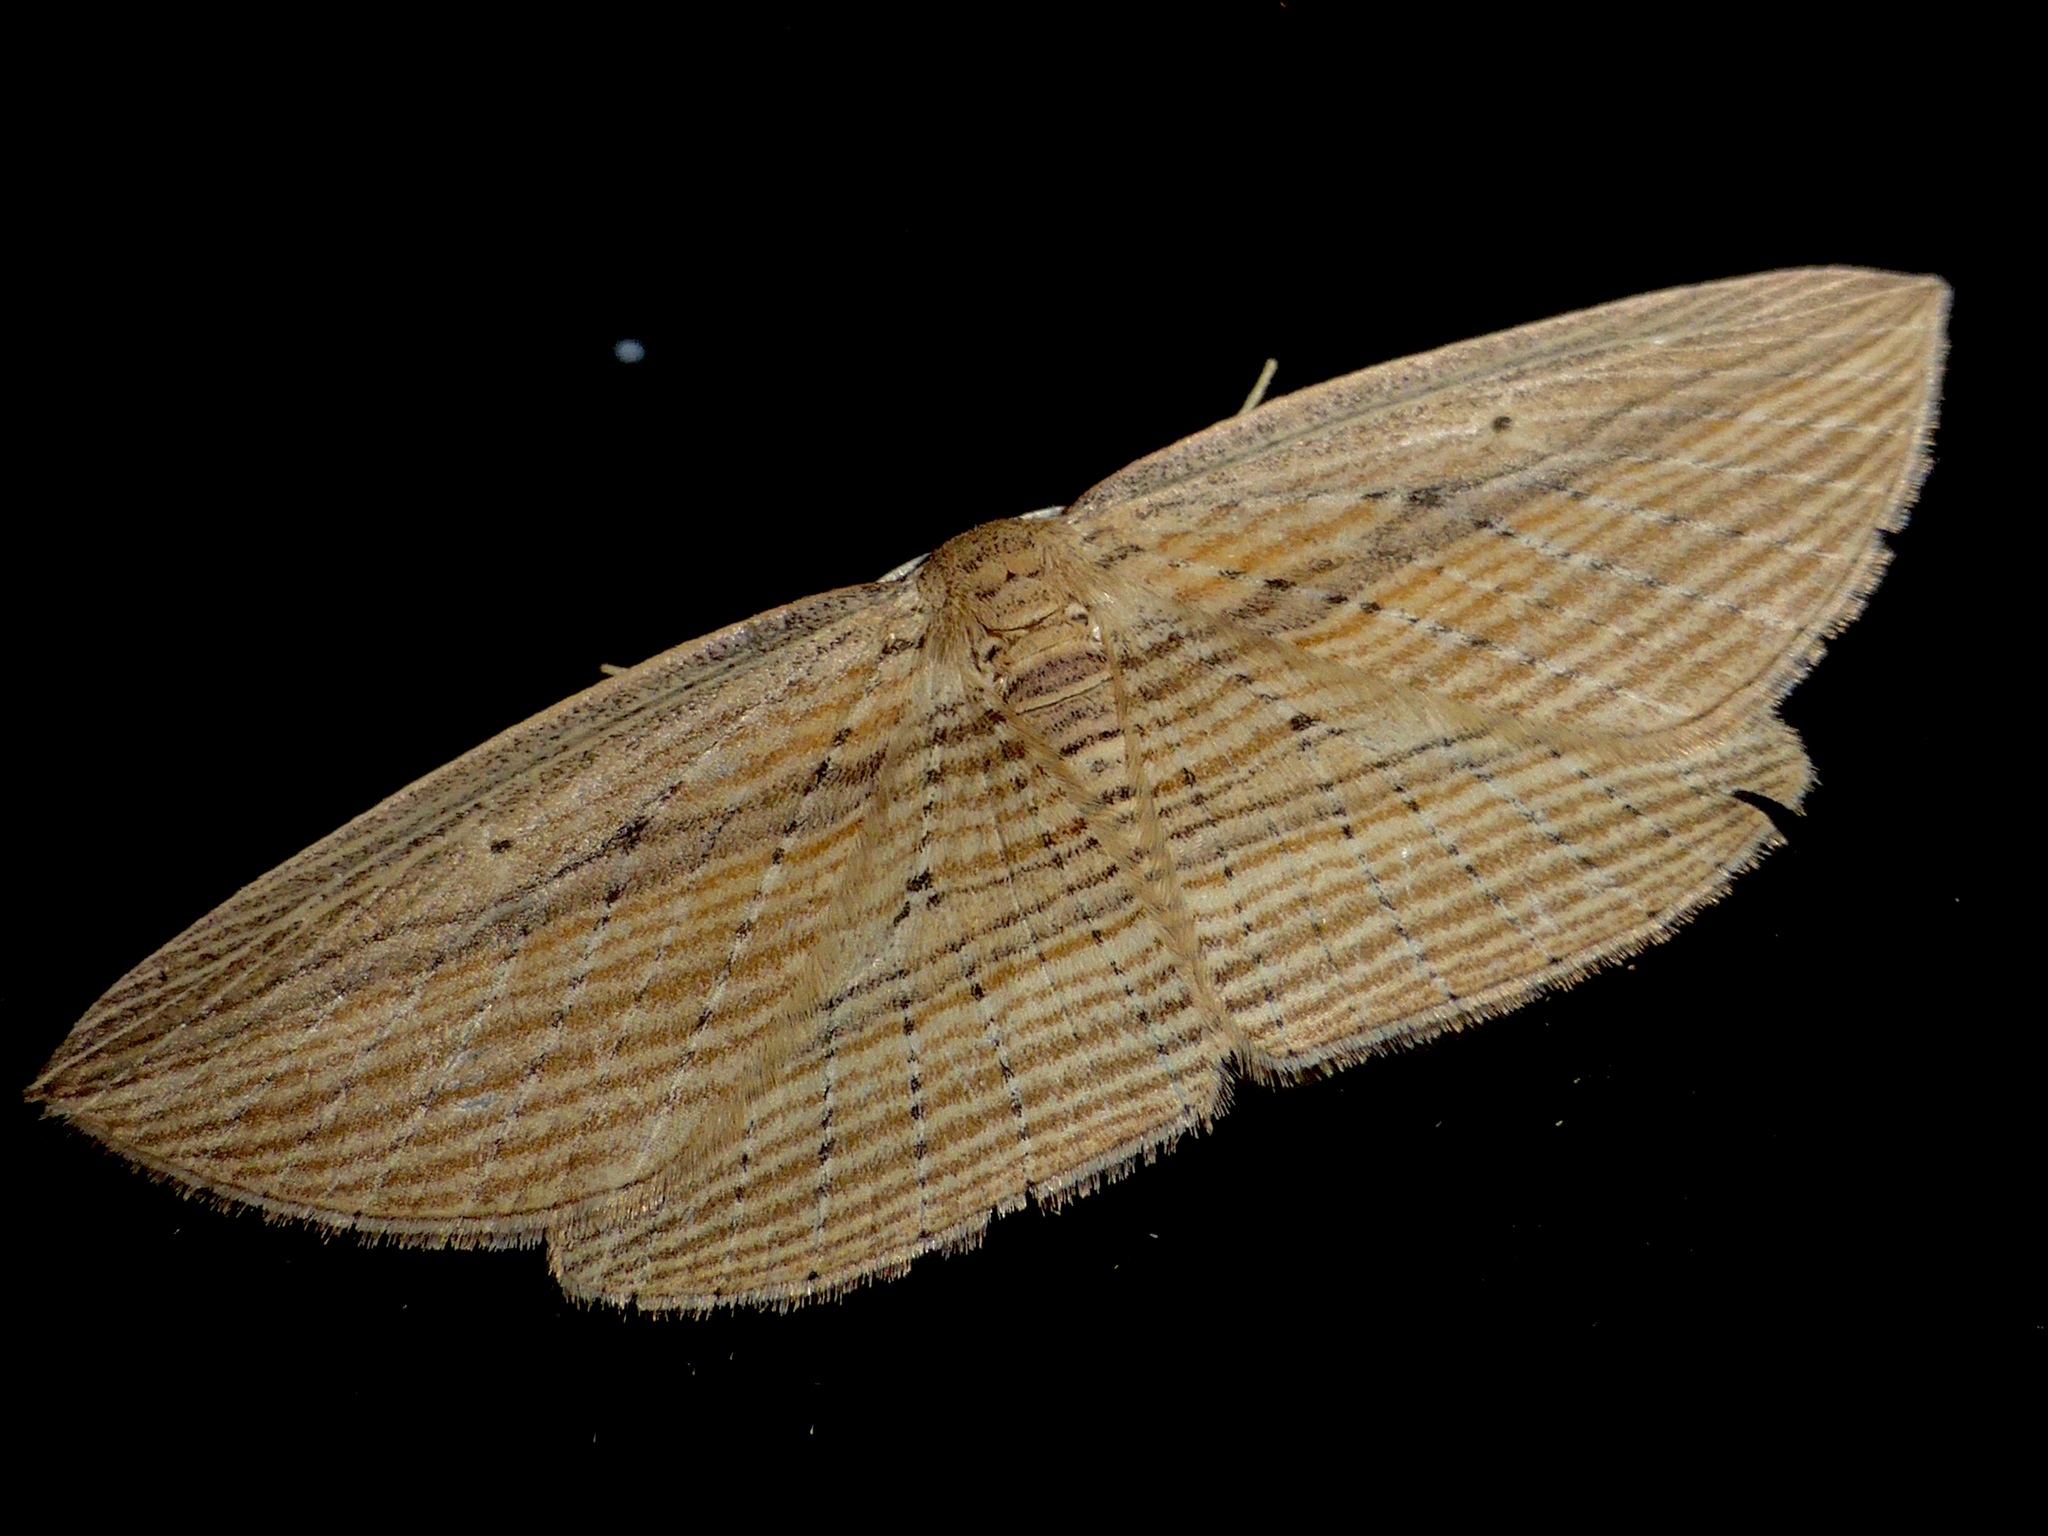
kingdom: Animalia
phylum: Arthropoda
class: Insecta
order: Lepidoptera
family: Geometridae
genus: Epiphryne
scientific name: Epiphryne verriculata
